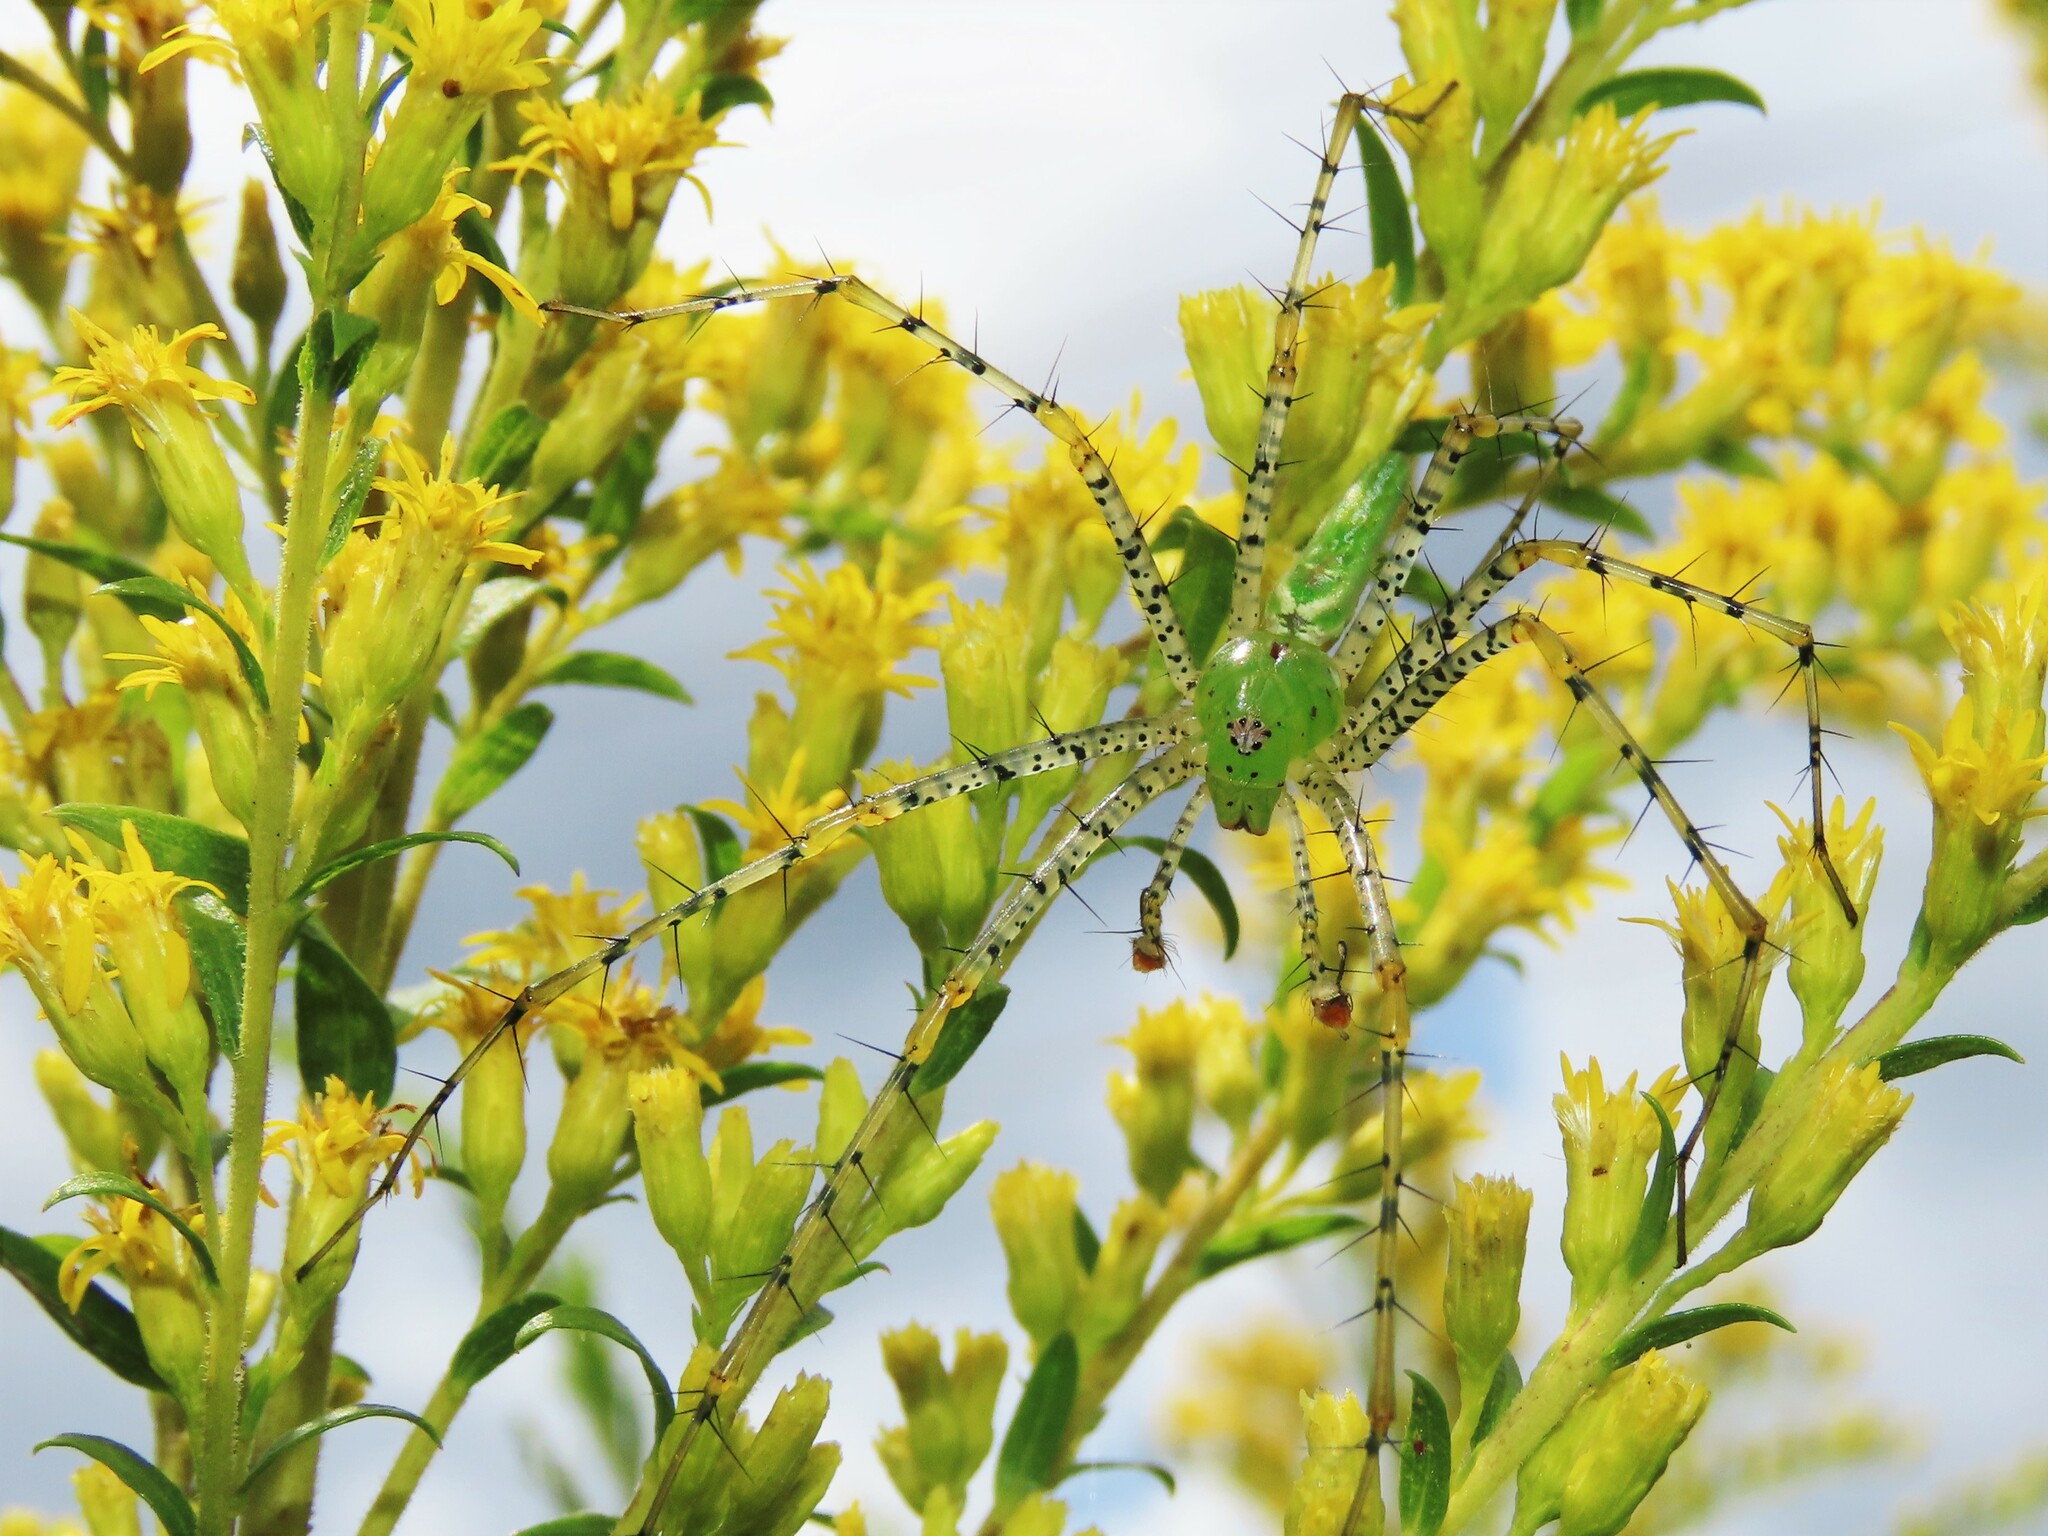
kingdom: Animalia
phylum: Arthropoda
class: Arachnida
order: Araneae
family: Oxyopidae
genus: Peucetia
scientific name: Peucetia viridans
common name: Lynx spiders
